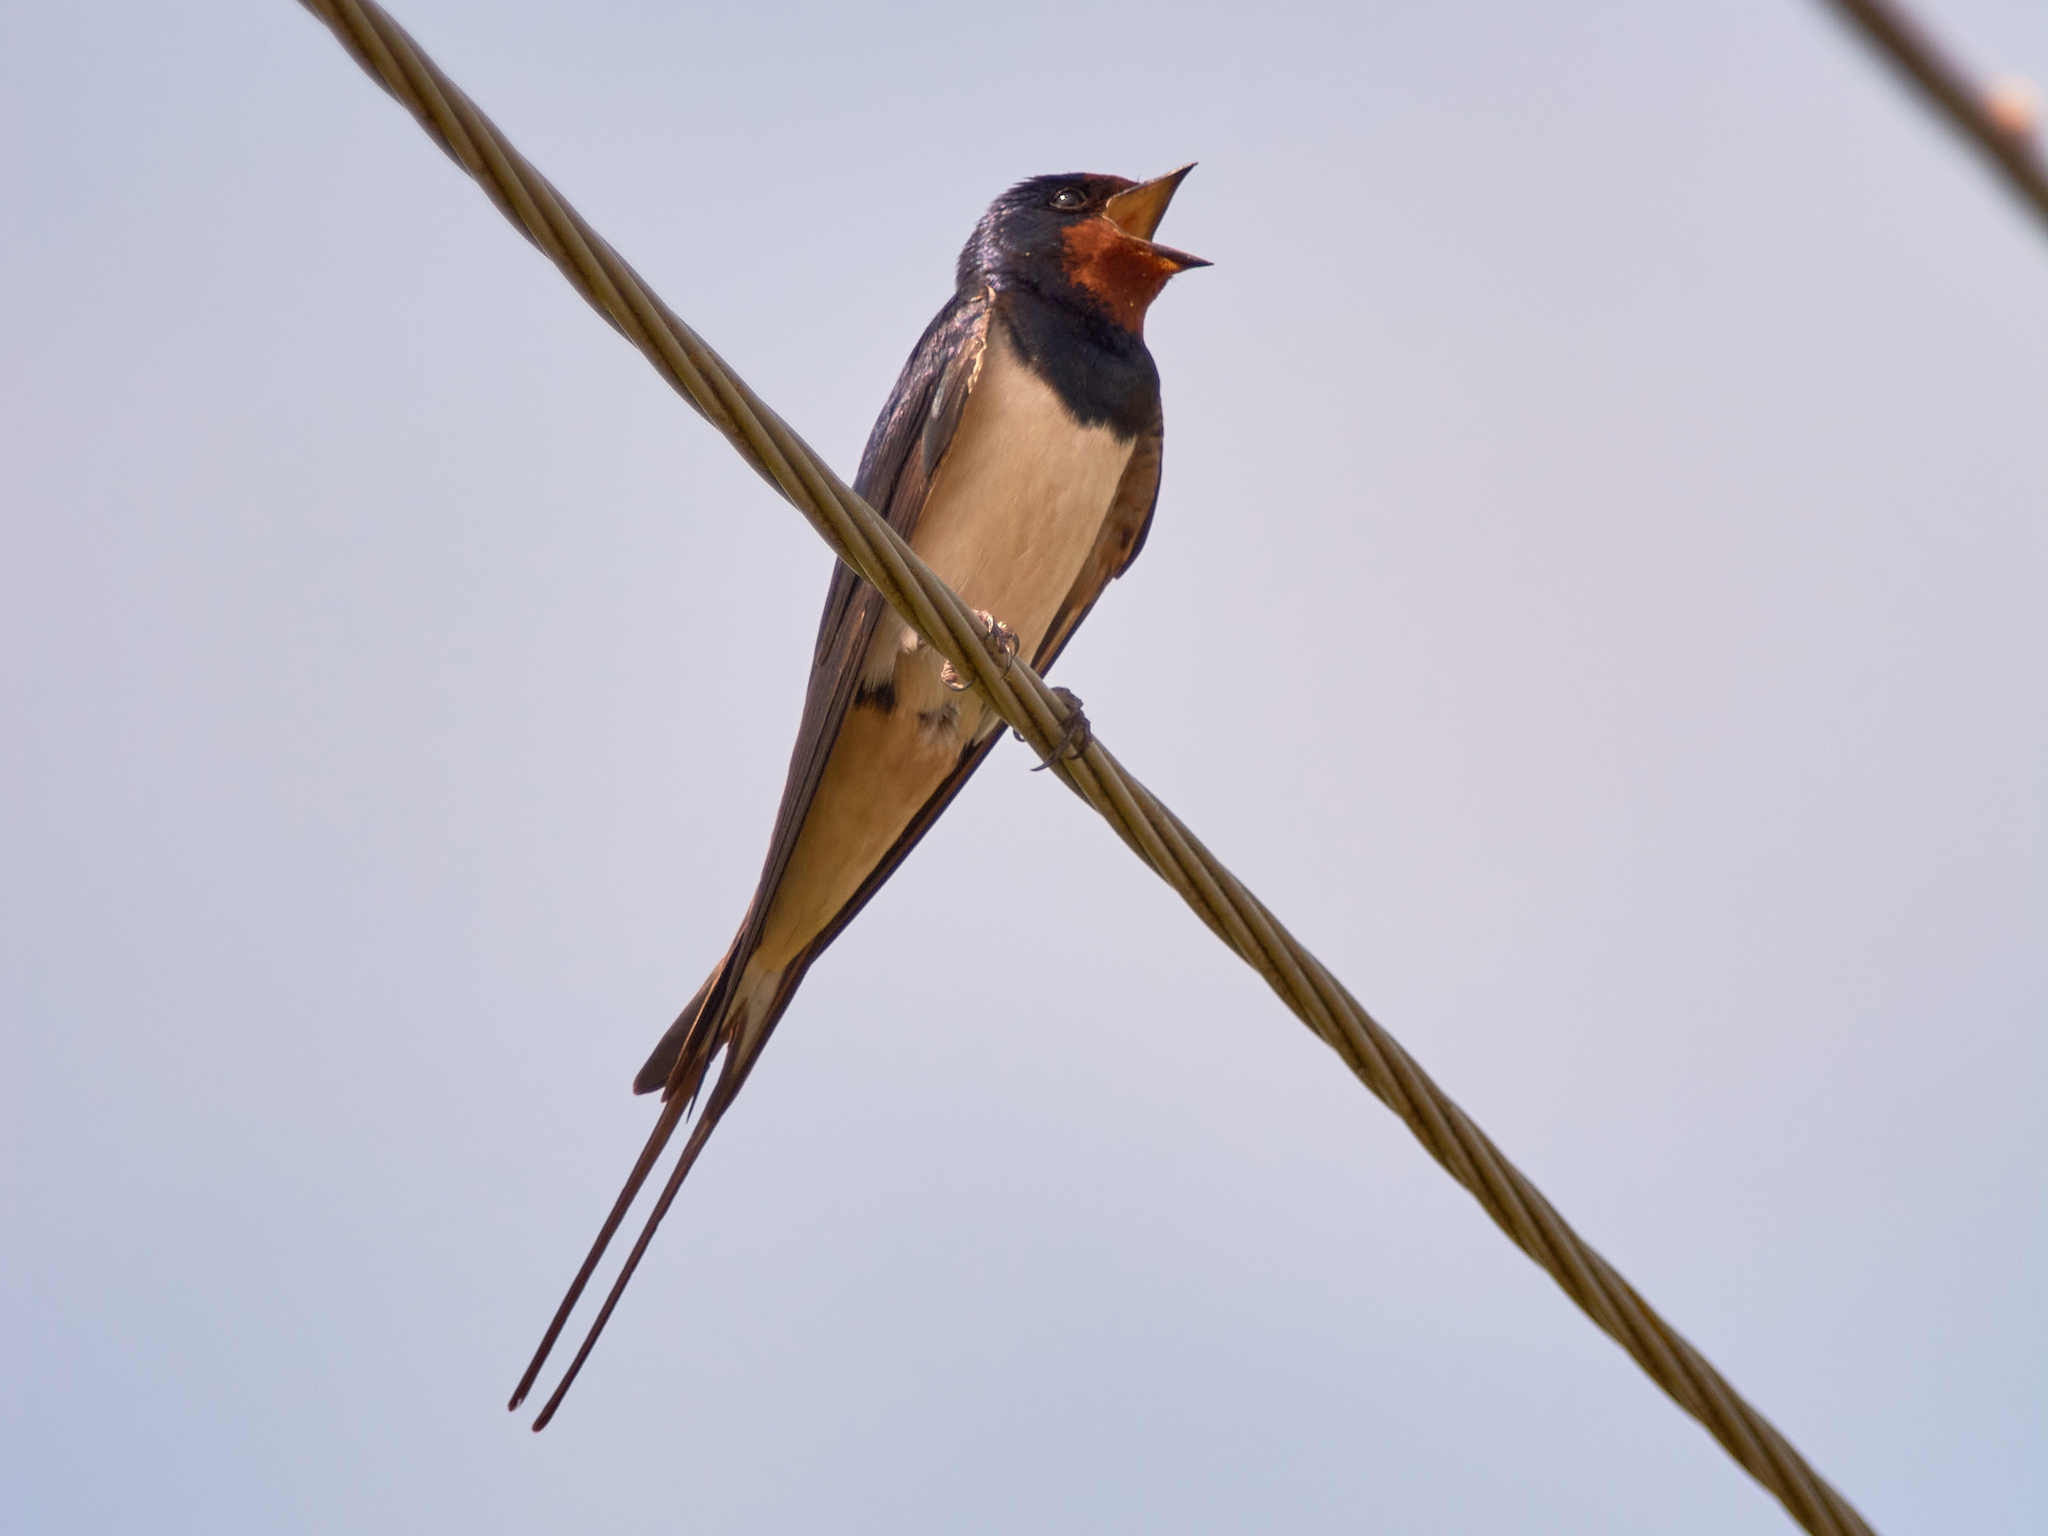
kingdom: Animalia
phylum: Chordata
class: Aves
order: Passeriformes
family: Hirundinidae
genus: Hirundo
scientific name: Hirundo rustica
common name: Barn swallow
